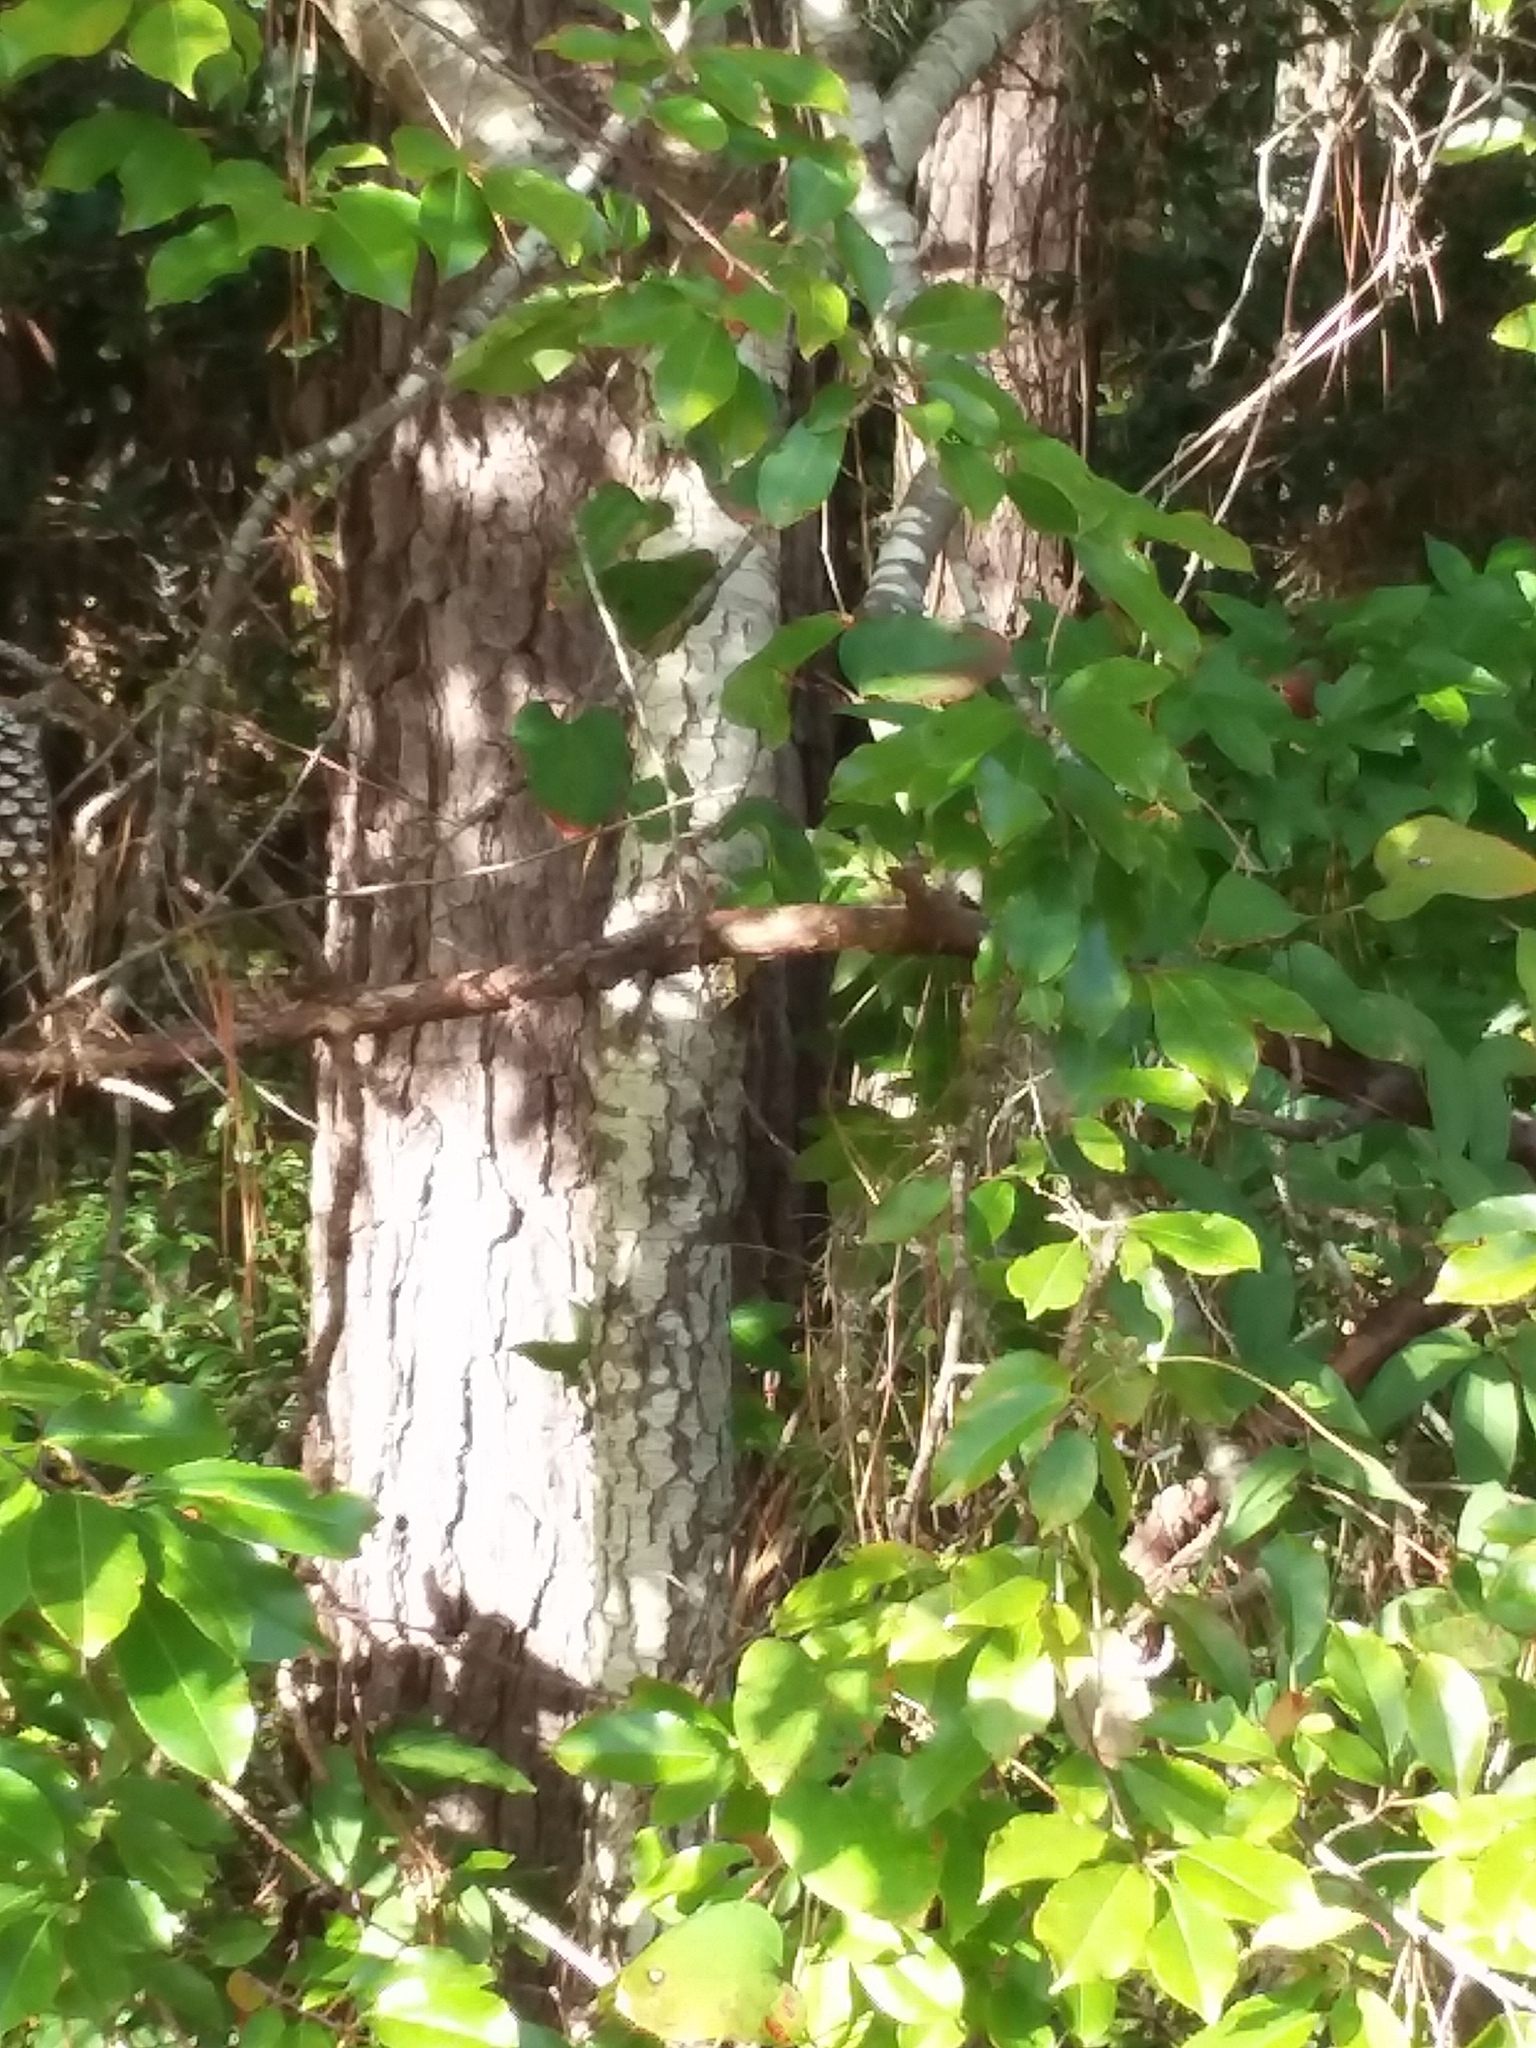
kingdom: Plantae
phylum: Tracheophyta
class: Magnoliopsida
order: Rosales
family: Rosaceae
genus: Prunus
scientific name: Prunus serotina
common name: Black cherry
